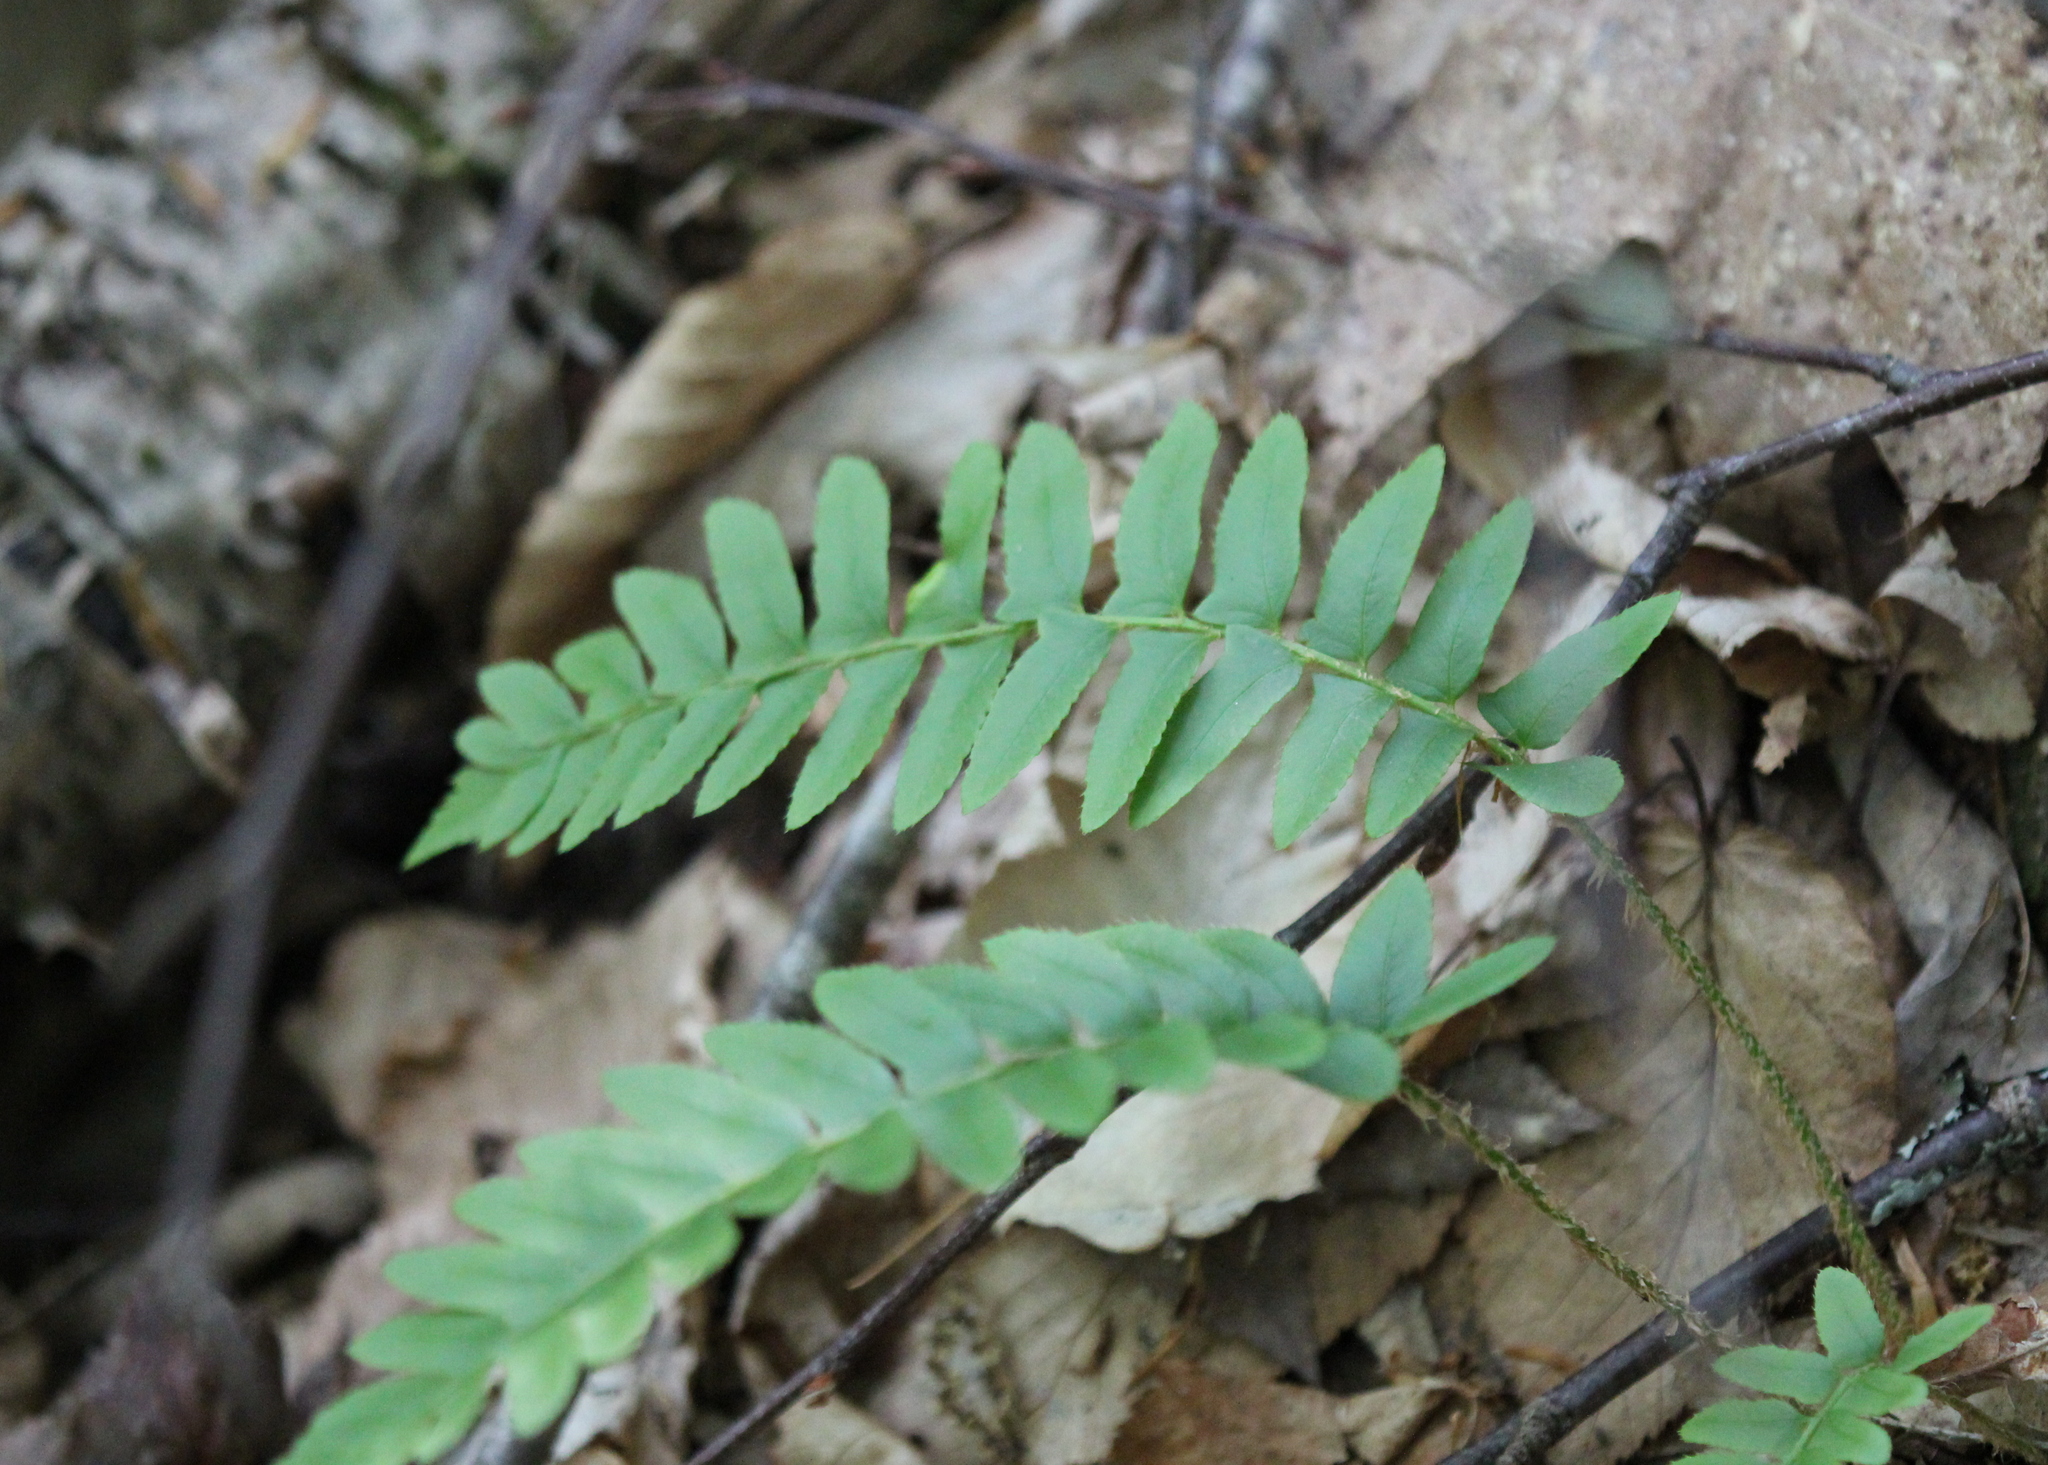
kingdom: Plantae
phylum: Tracheophyta
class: Polypodiopsida
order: Polypodiales
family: Dryopteridaceae
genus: Polystichum
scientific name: Polystichum acrostichoides
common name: Christmas fern
